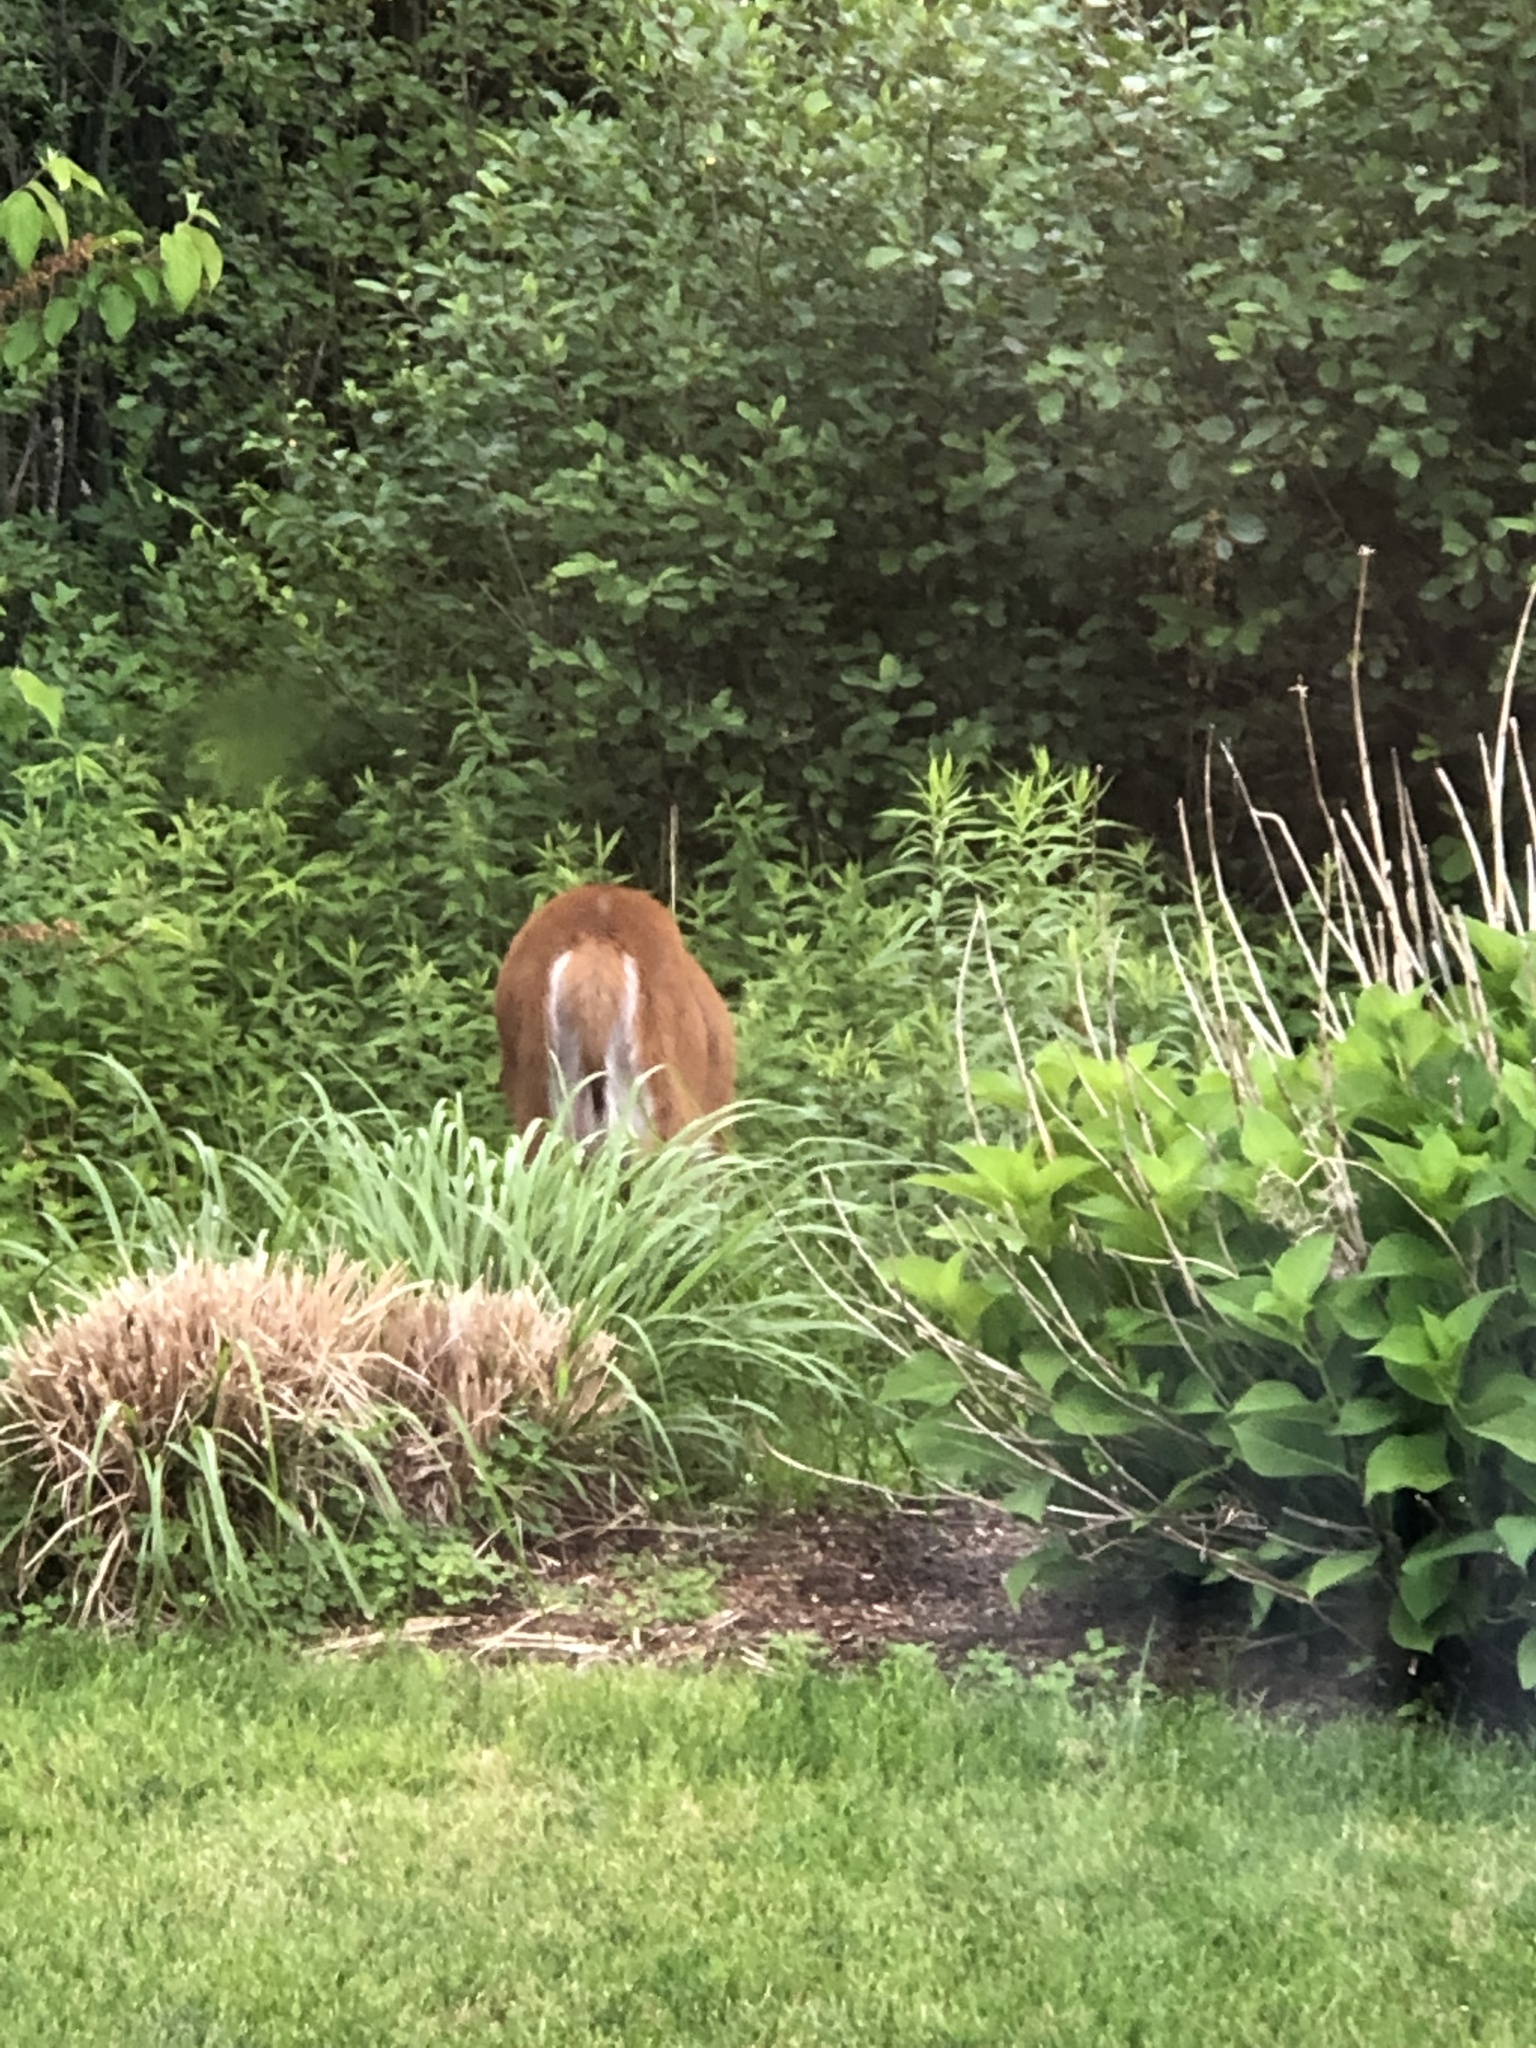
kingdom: Animalia
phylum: Chordata
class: Mammalia
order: Artiodactyla
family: Cervidae
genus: Odocoileus
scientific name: Odocoileus virginianus
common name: White-tailed deer
